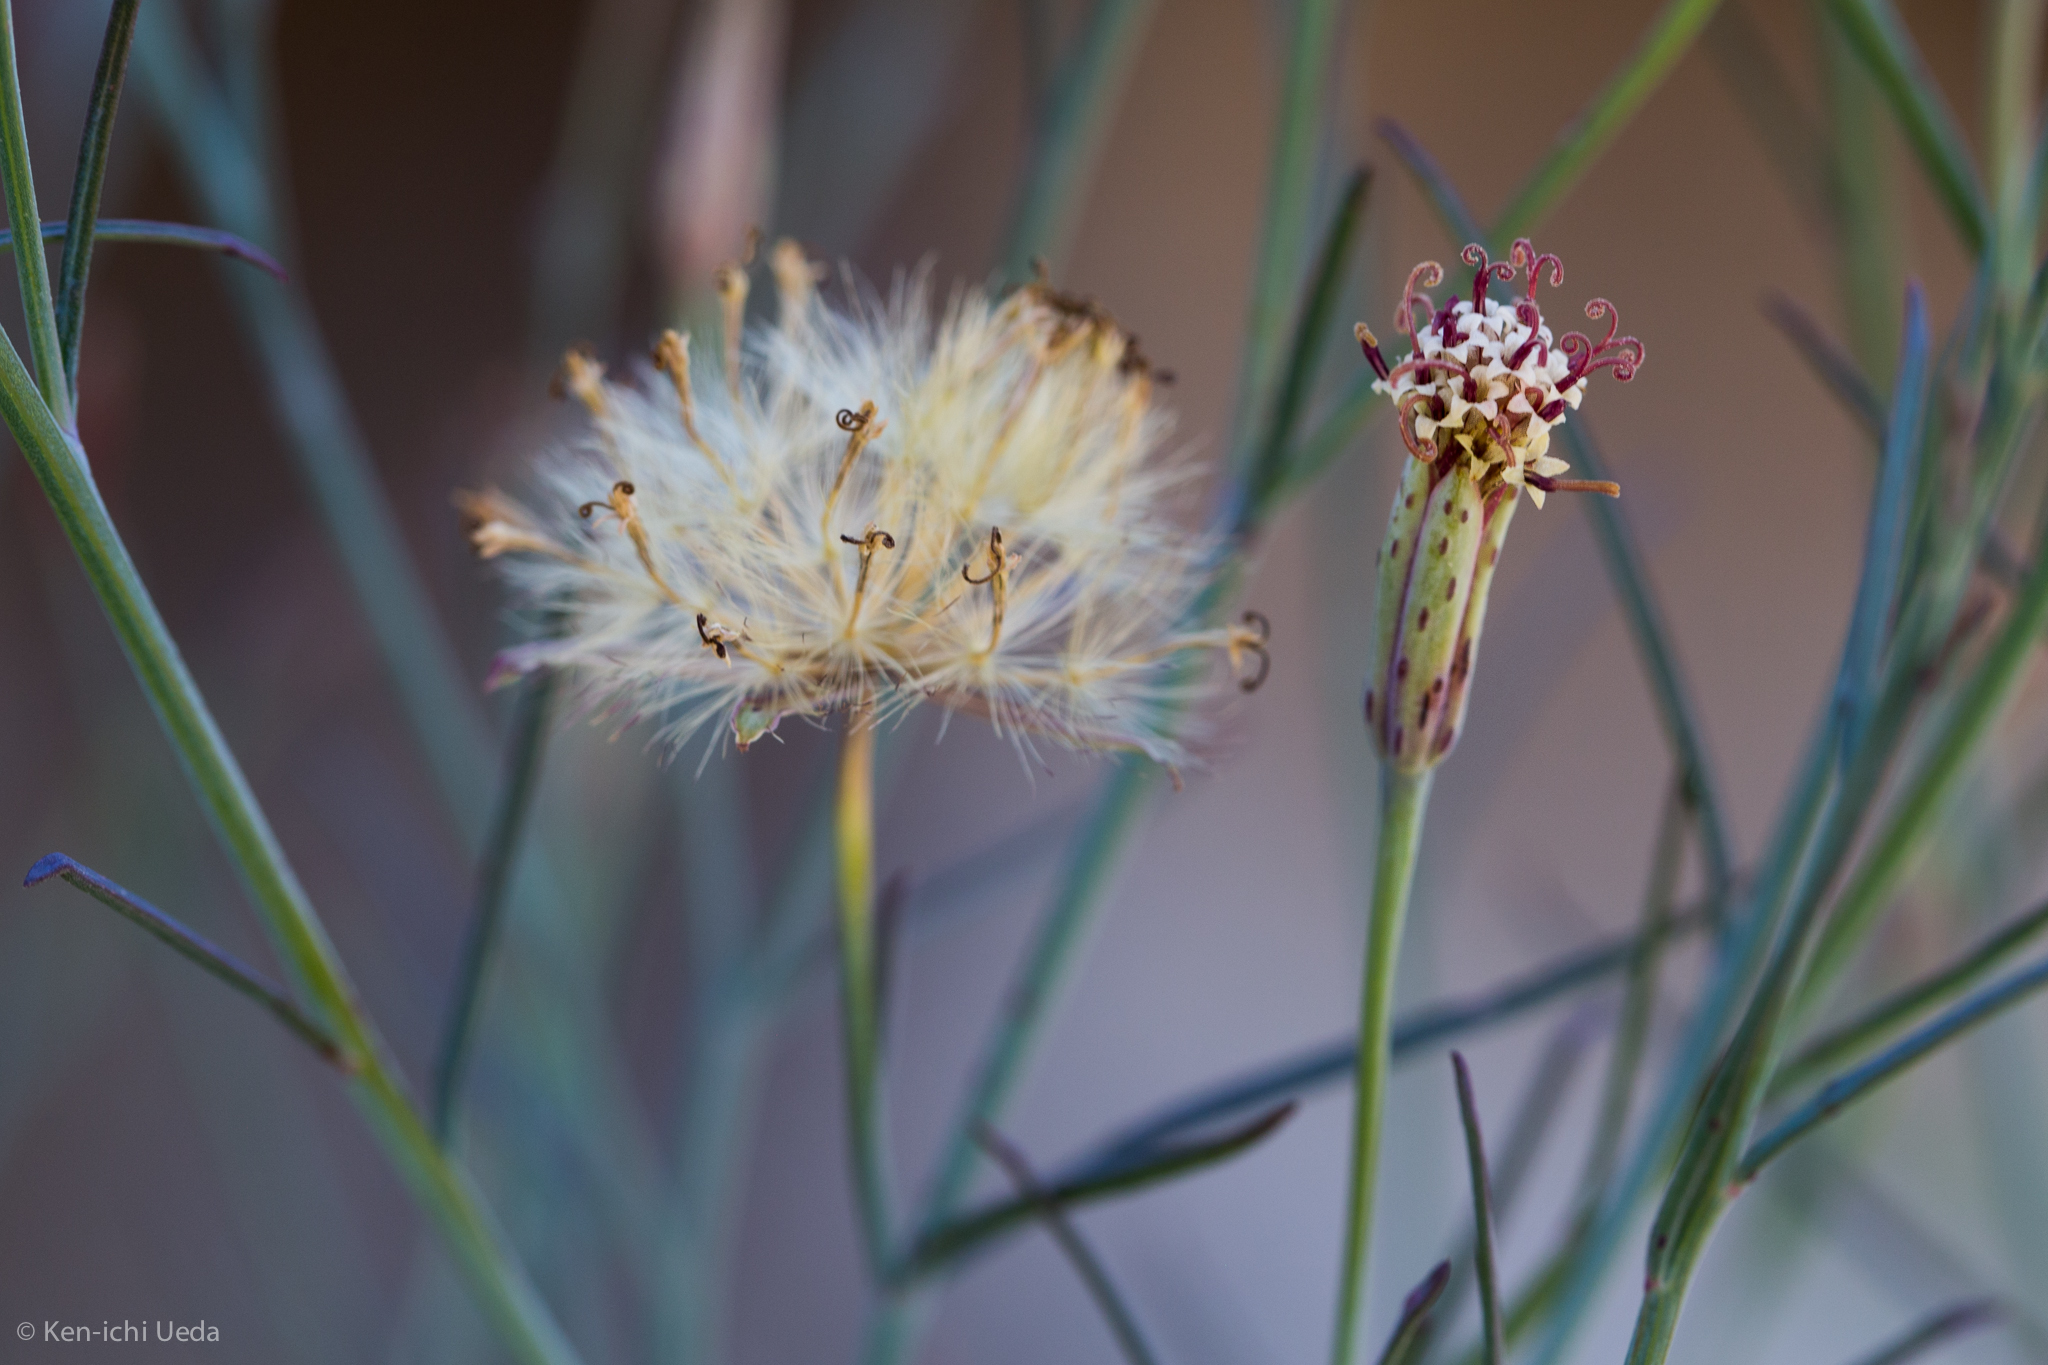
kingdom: Plantae
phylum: Tracheophyta
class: Magnoliopsida
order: Asterales
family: Asteraceae
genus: Porophyllum
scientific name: Porophyllum gracile
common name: Odora
